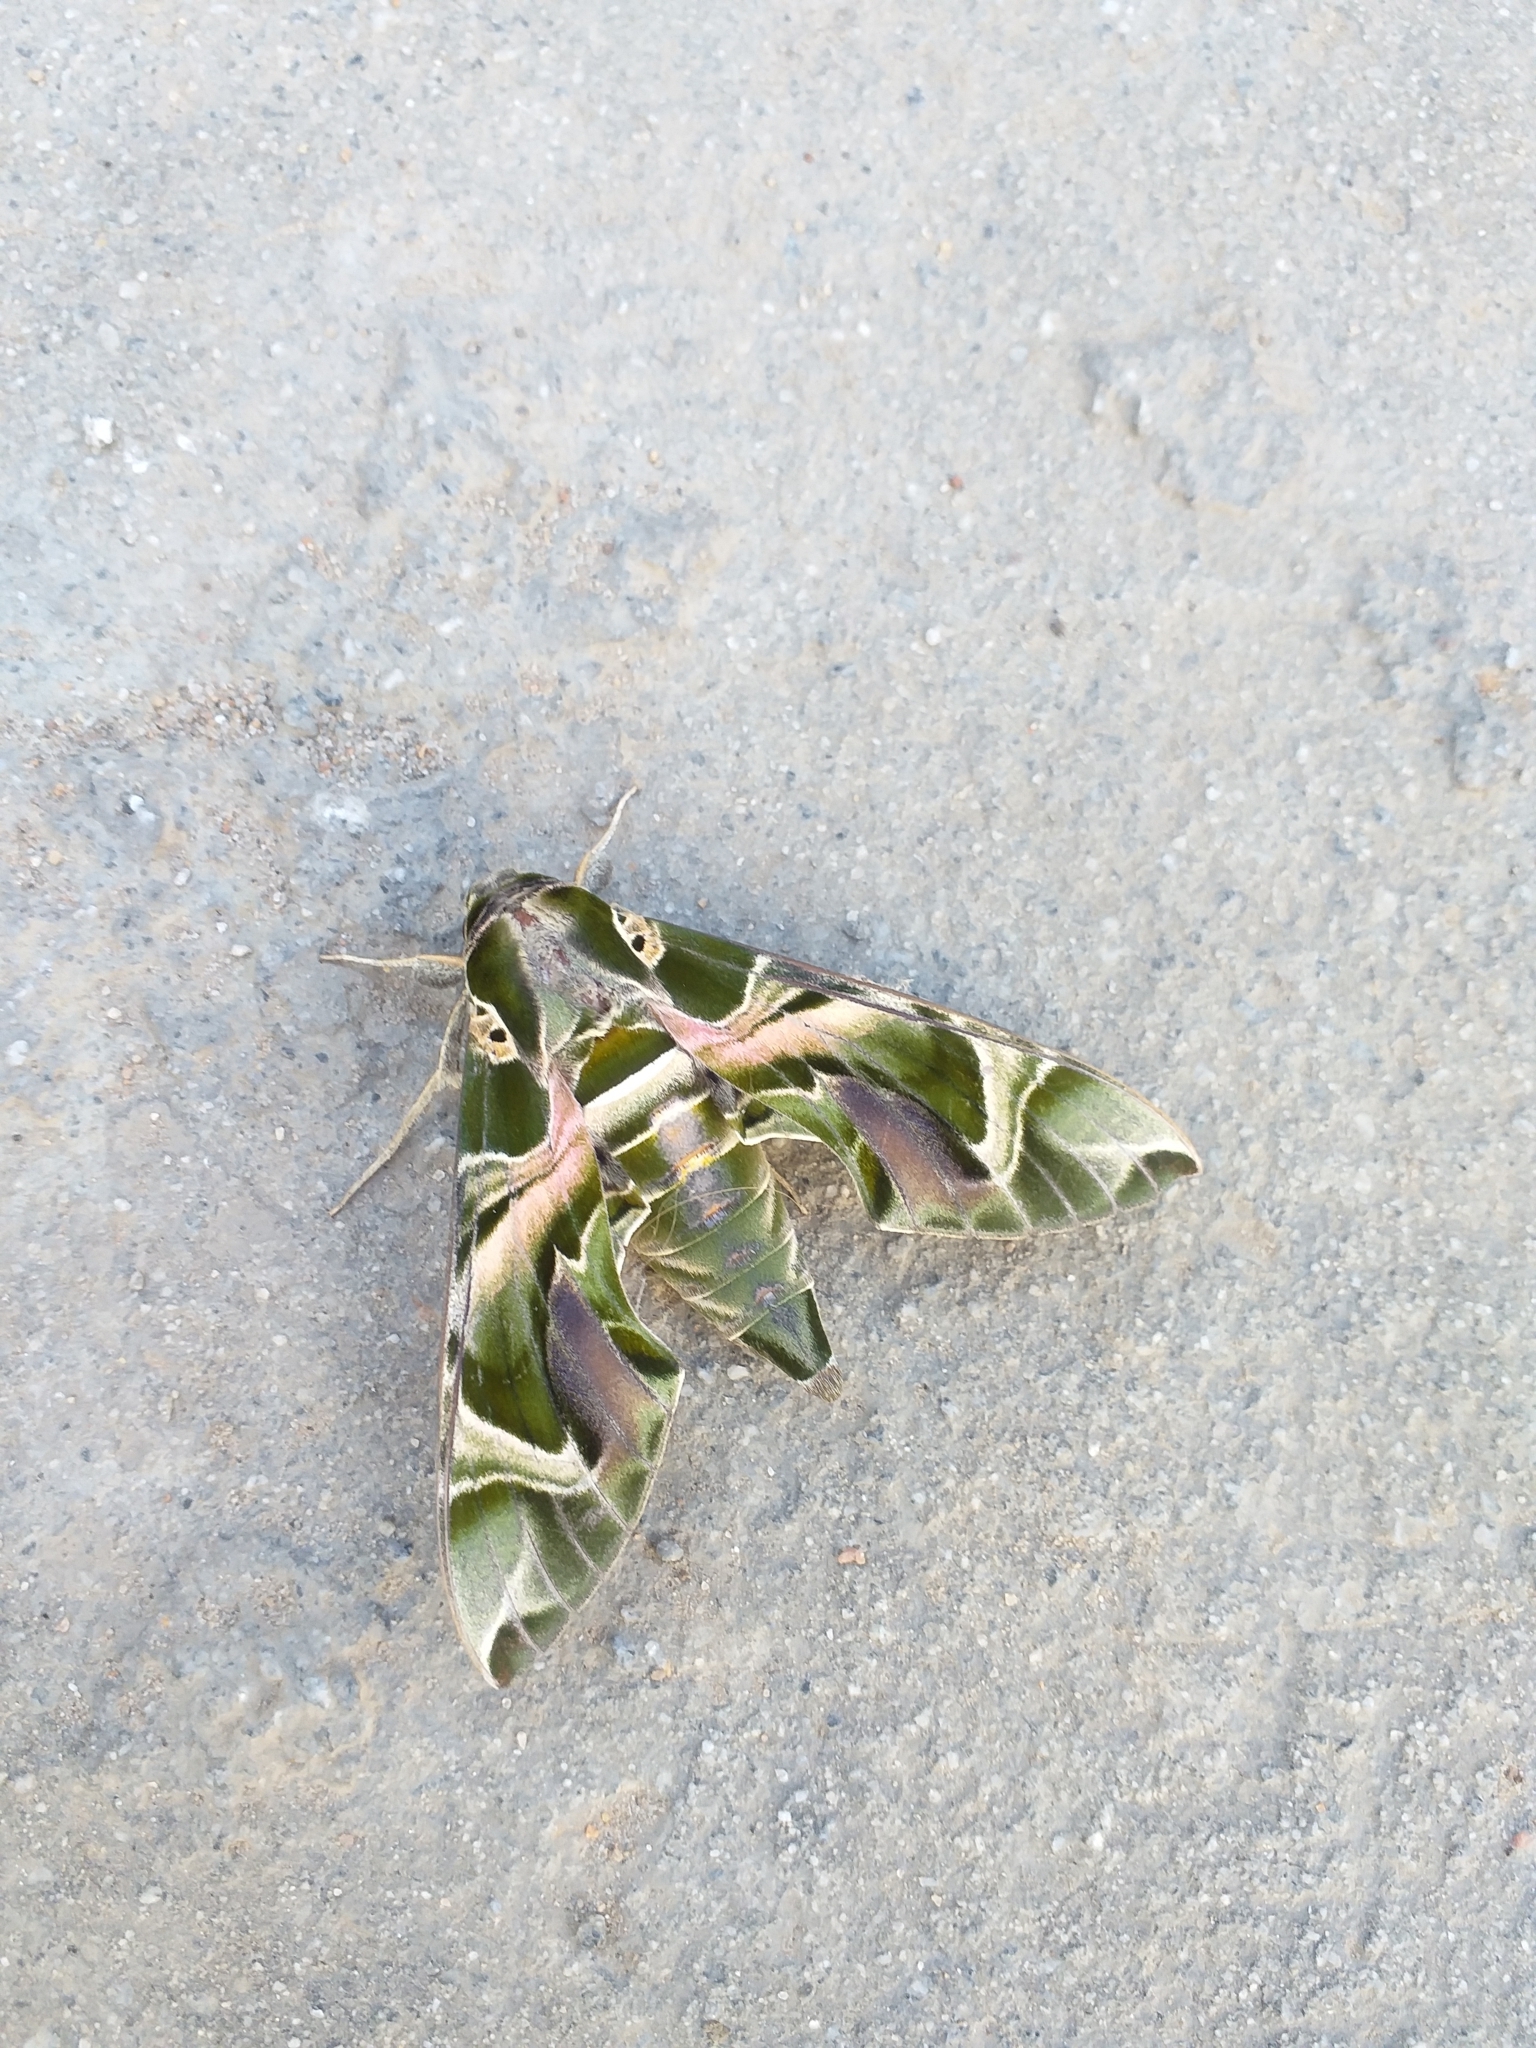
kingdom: Animalia
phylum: Arthropoda
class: Insecta
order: Lepidoptera
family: Sphingidae
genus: Daphnis
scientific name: Daphnis nerii
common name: Oleander hawk-moth
